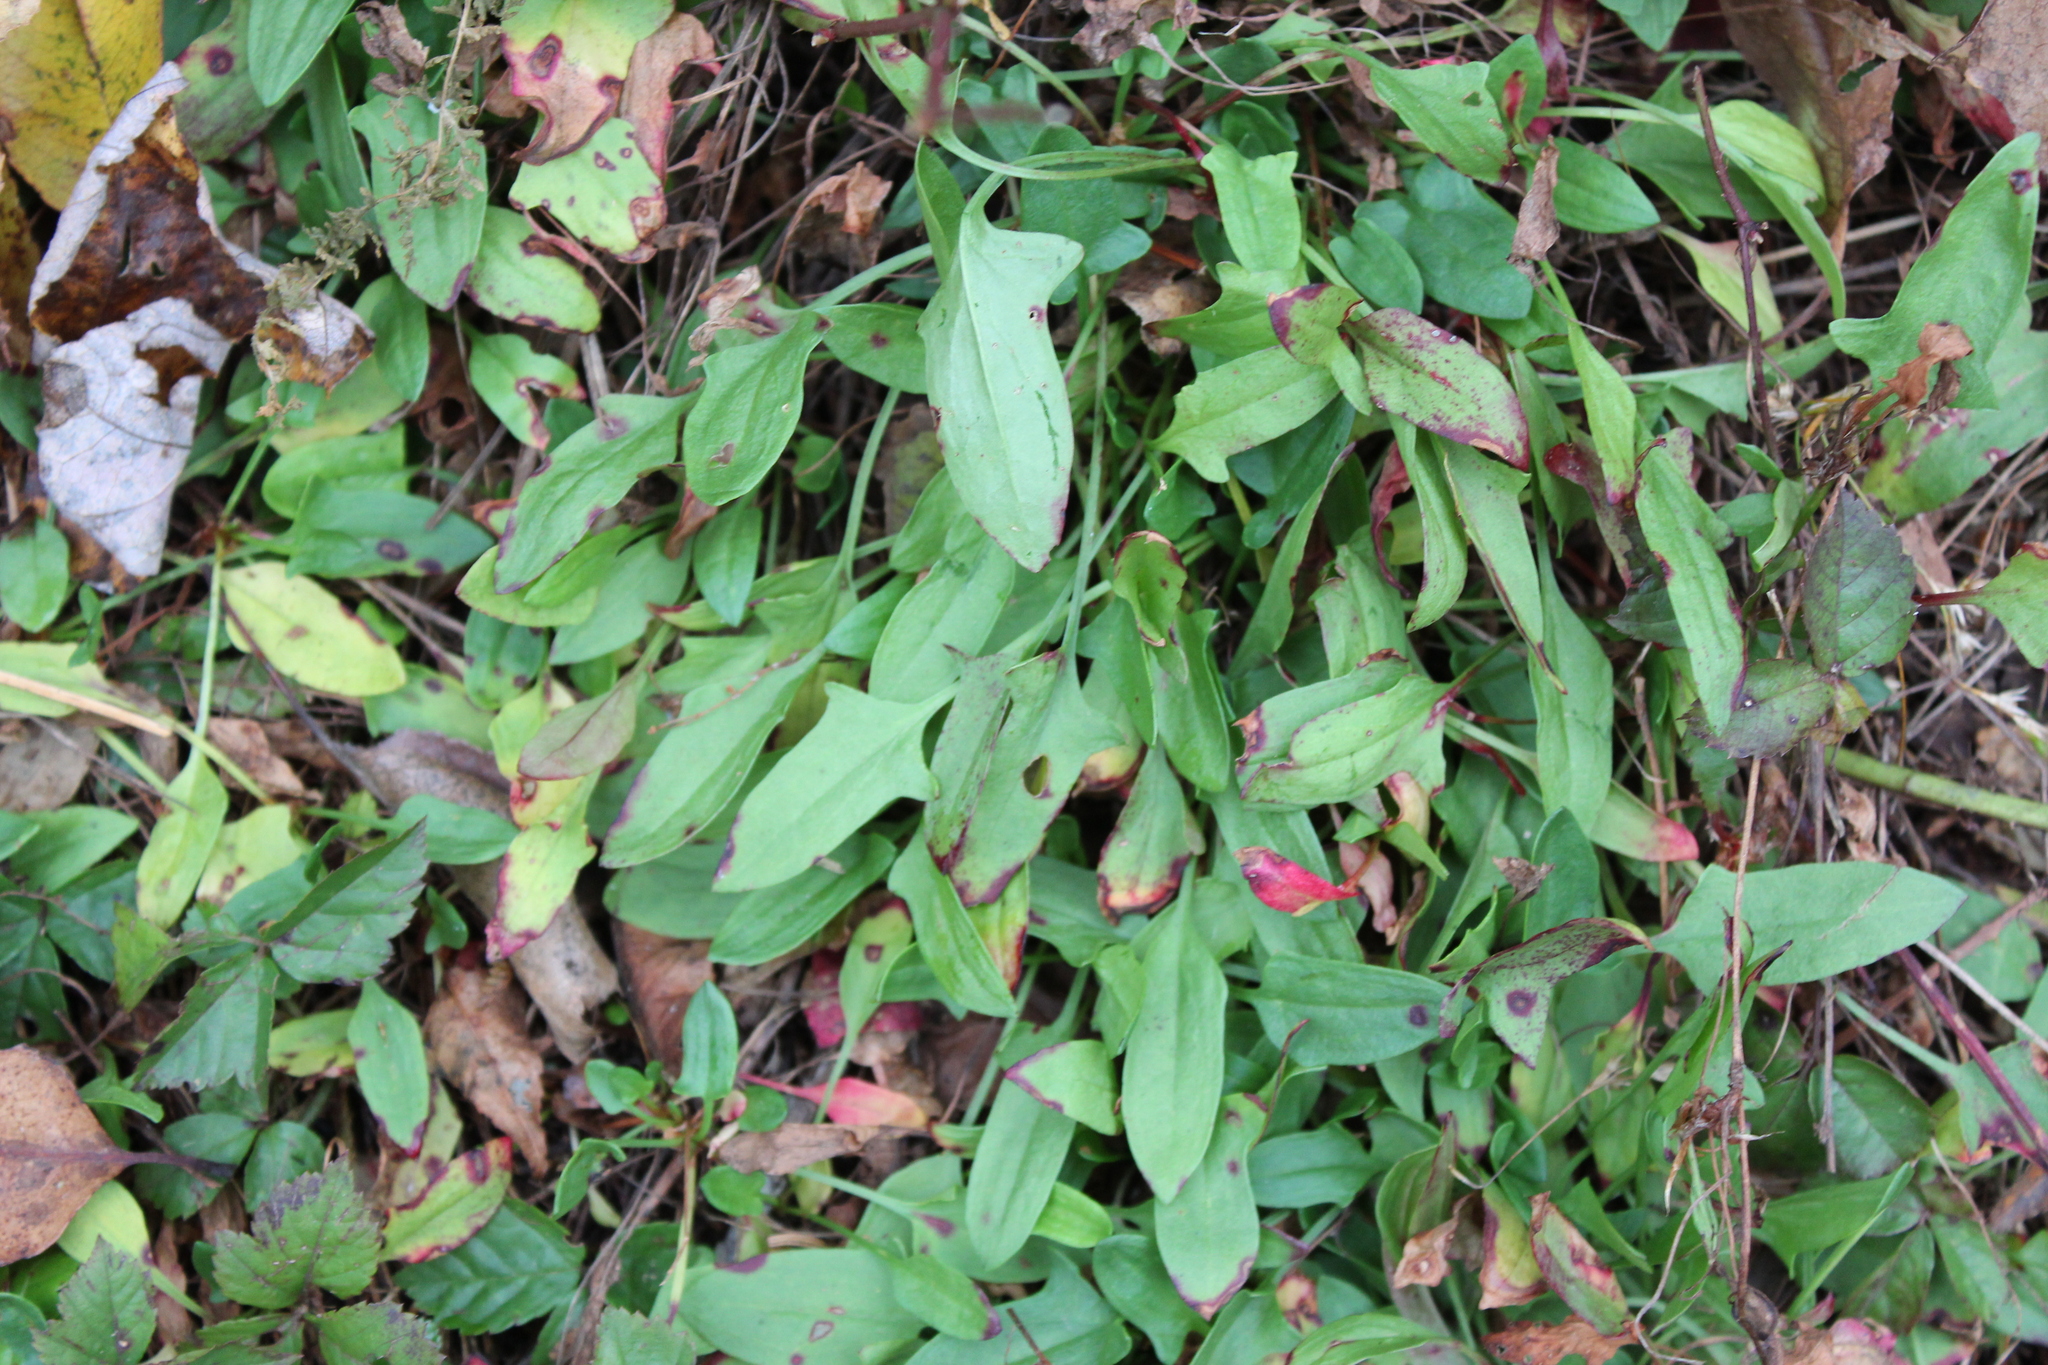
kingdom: Plantae
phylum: Tracheophyta
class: Magnoliopsida
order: Caryophyllales
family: Polygonaceae
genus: Rumex
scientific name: Rumex acetosella
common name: Common sheep sorrel
